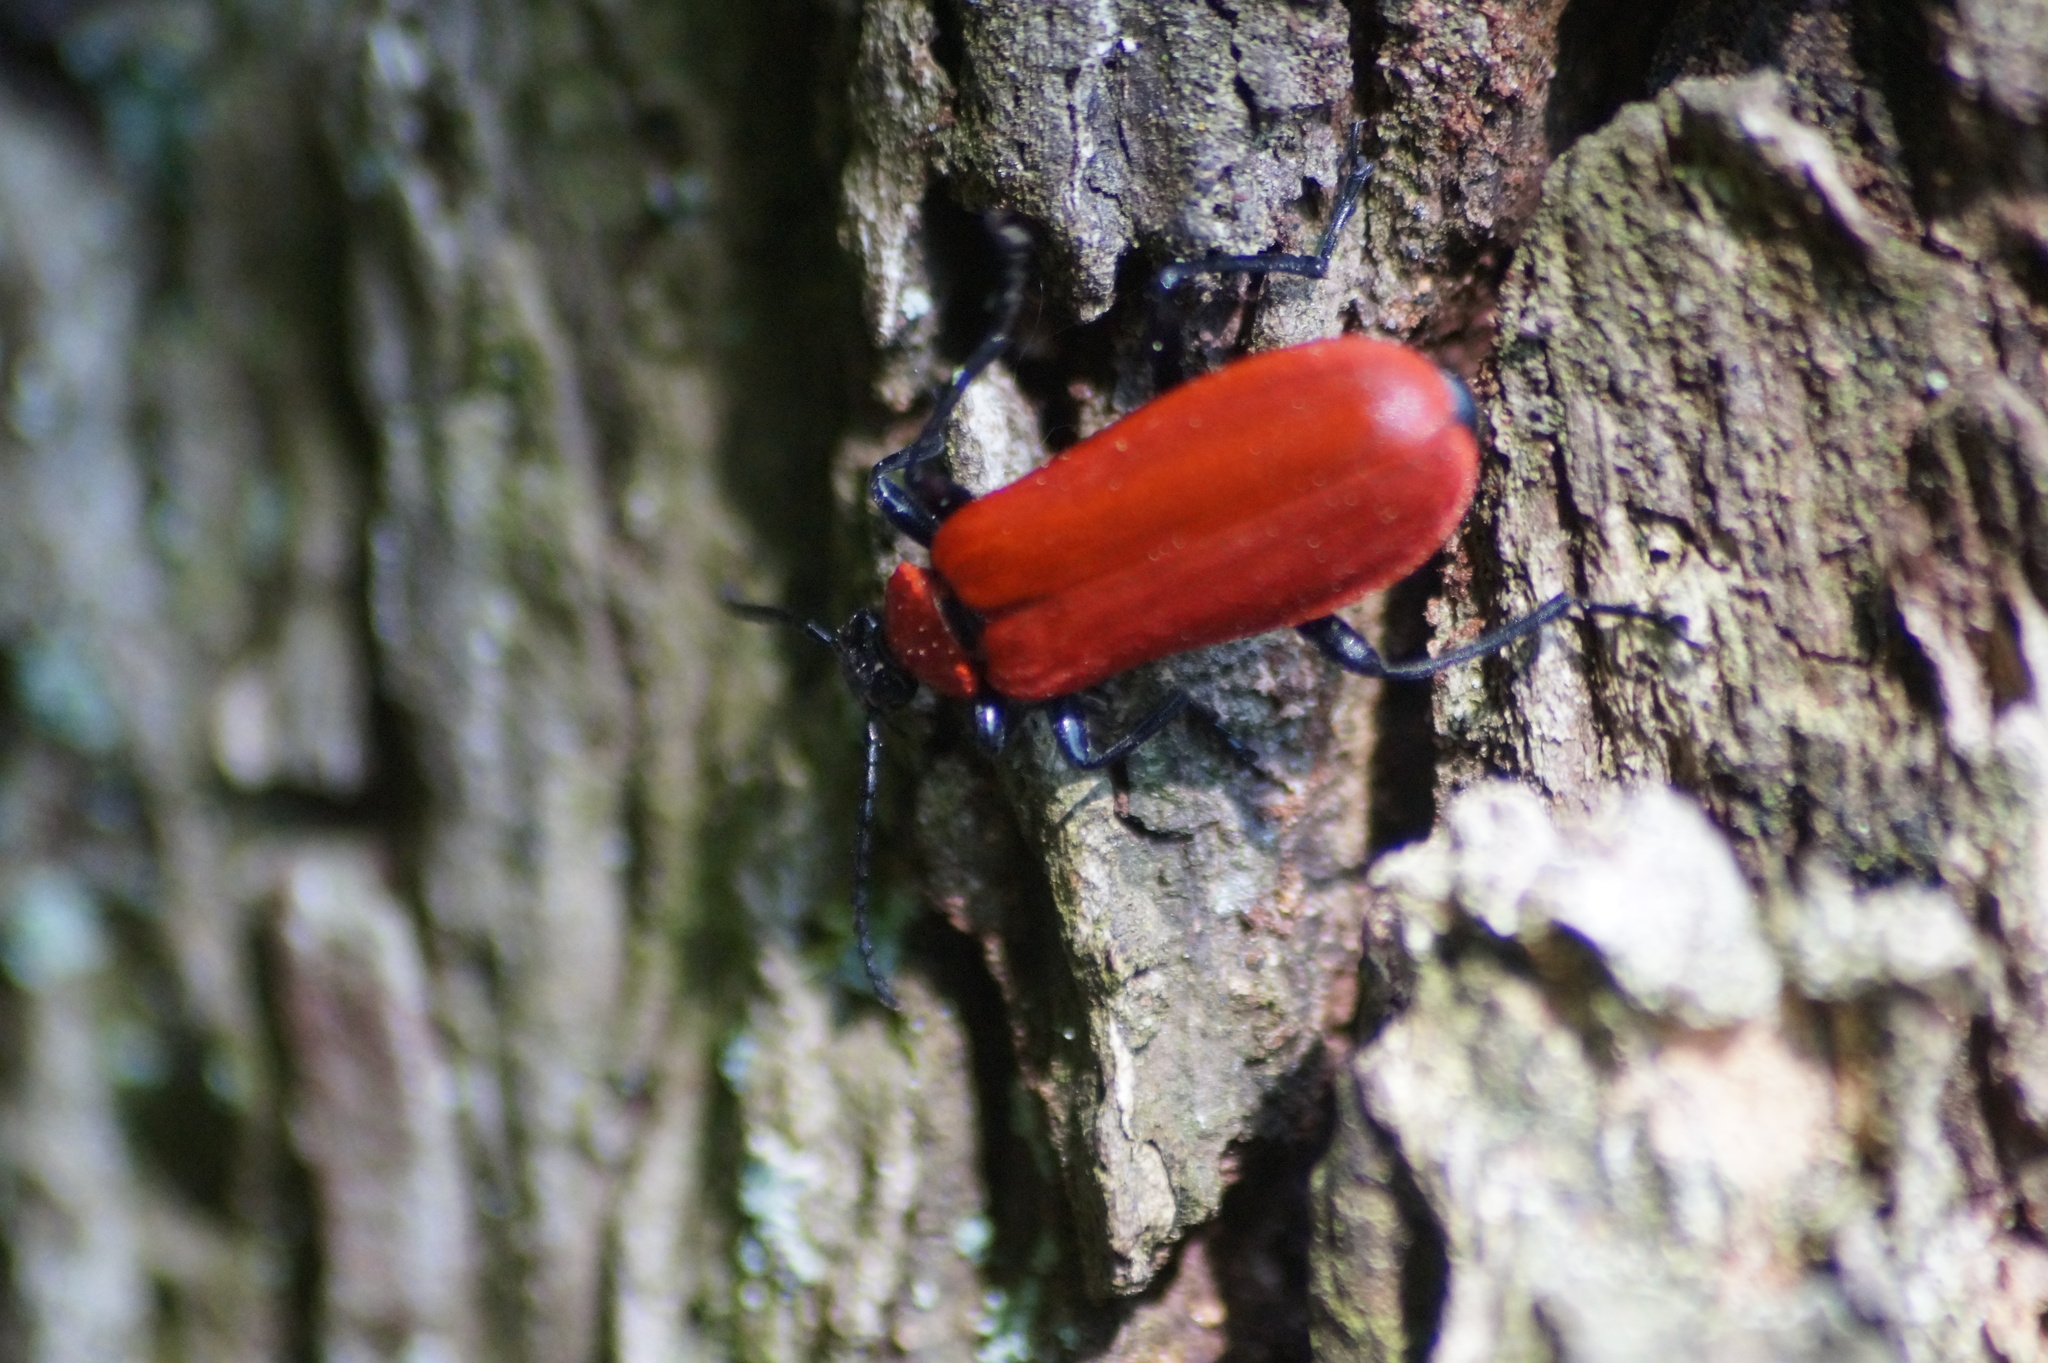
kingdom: Animalia
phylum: Arthropoda
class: Insecta
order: Coleoptera
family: Pyrochroidae
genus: Pyrochroa
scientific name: Pyrochroa coccinea
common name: Black-headed cardinal beetle
